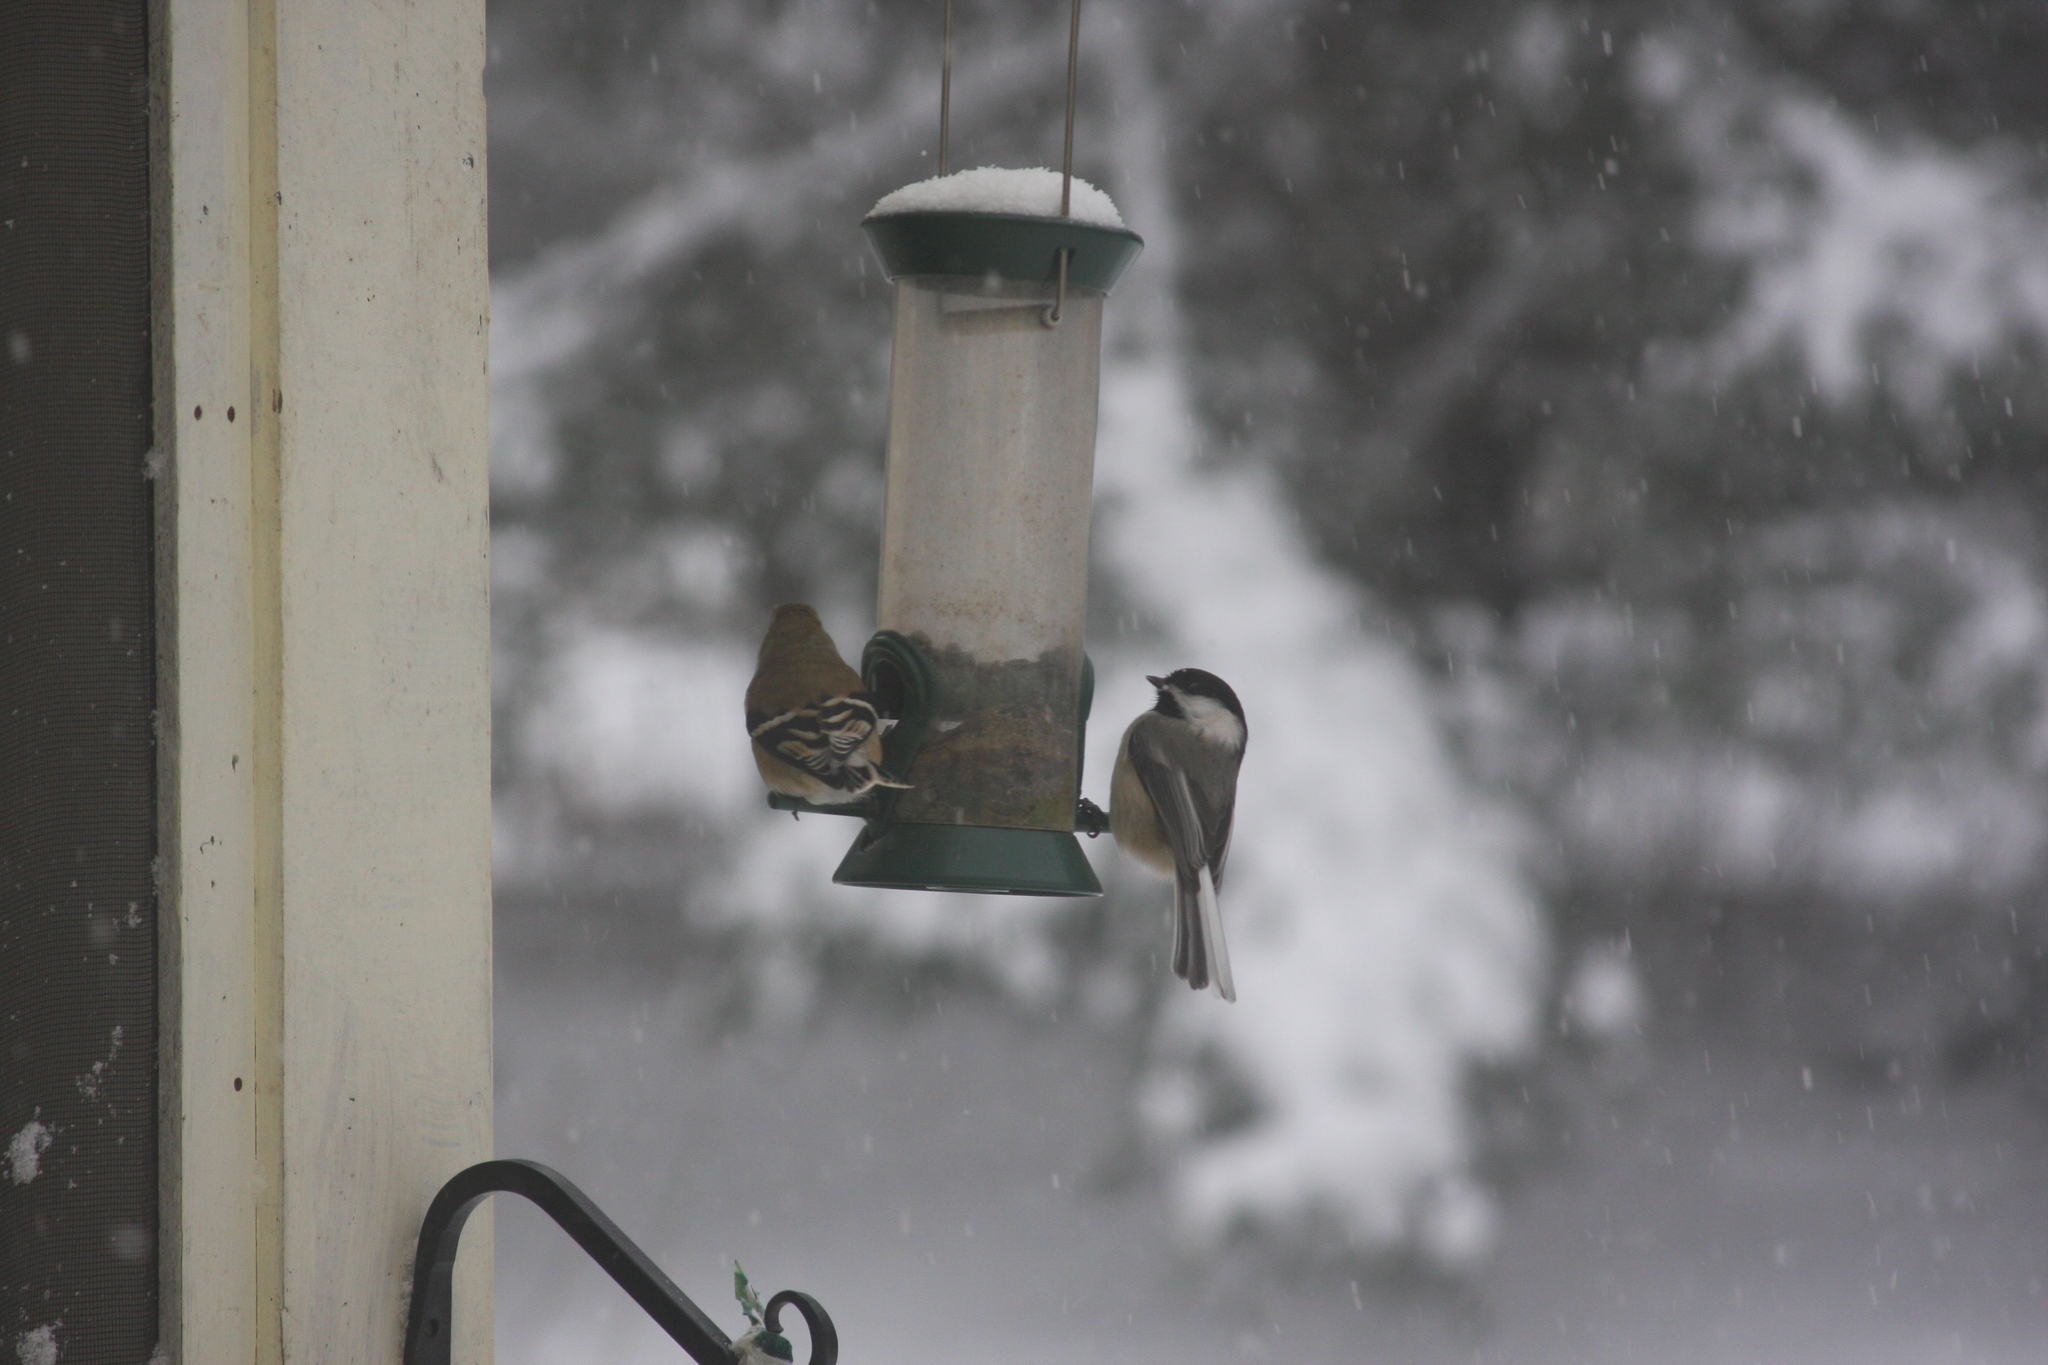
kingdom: Animalia
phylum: Chordata
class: Aves
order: Passeriformes
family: Paridae
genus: Poecile
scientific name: Poecile atricapillus
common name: Black-capped chickadee
